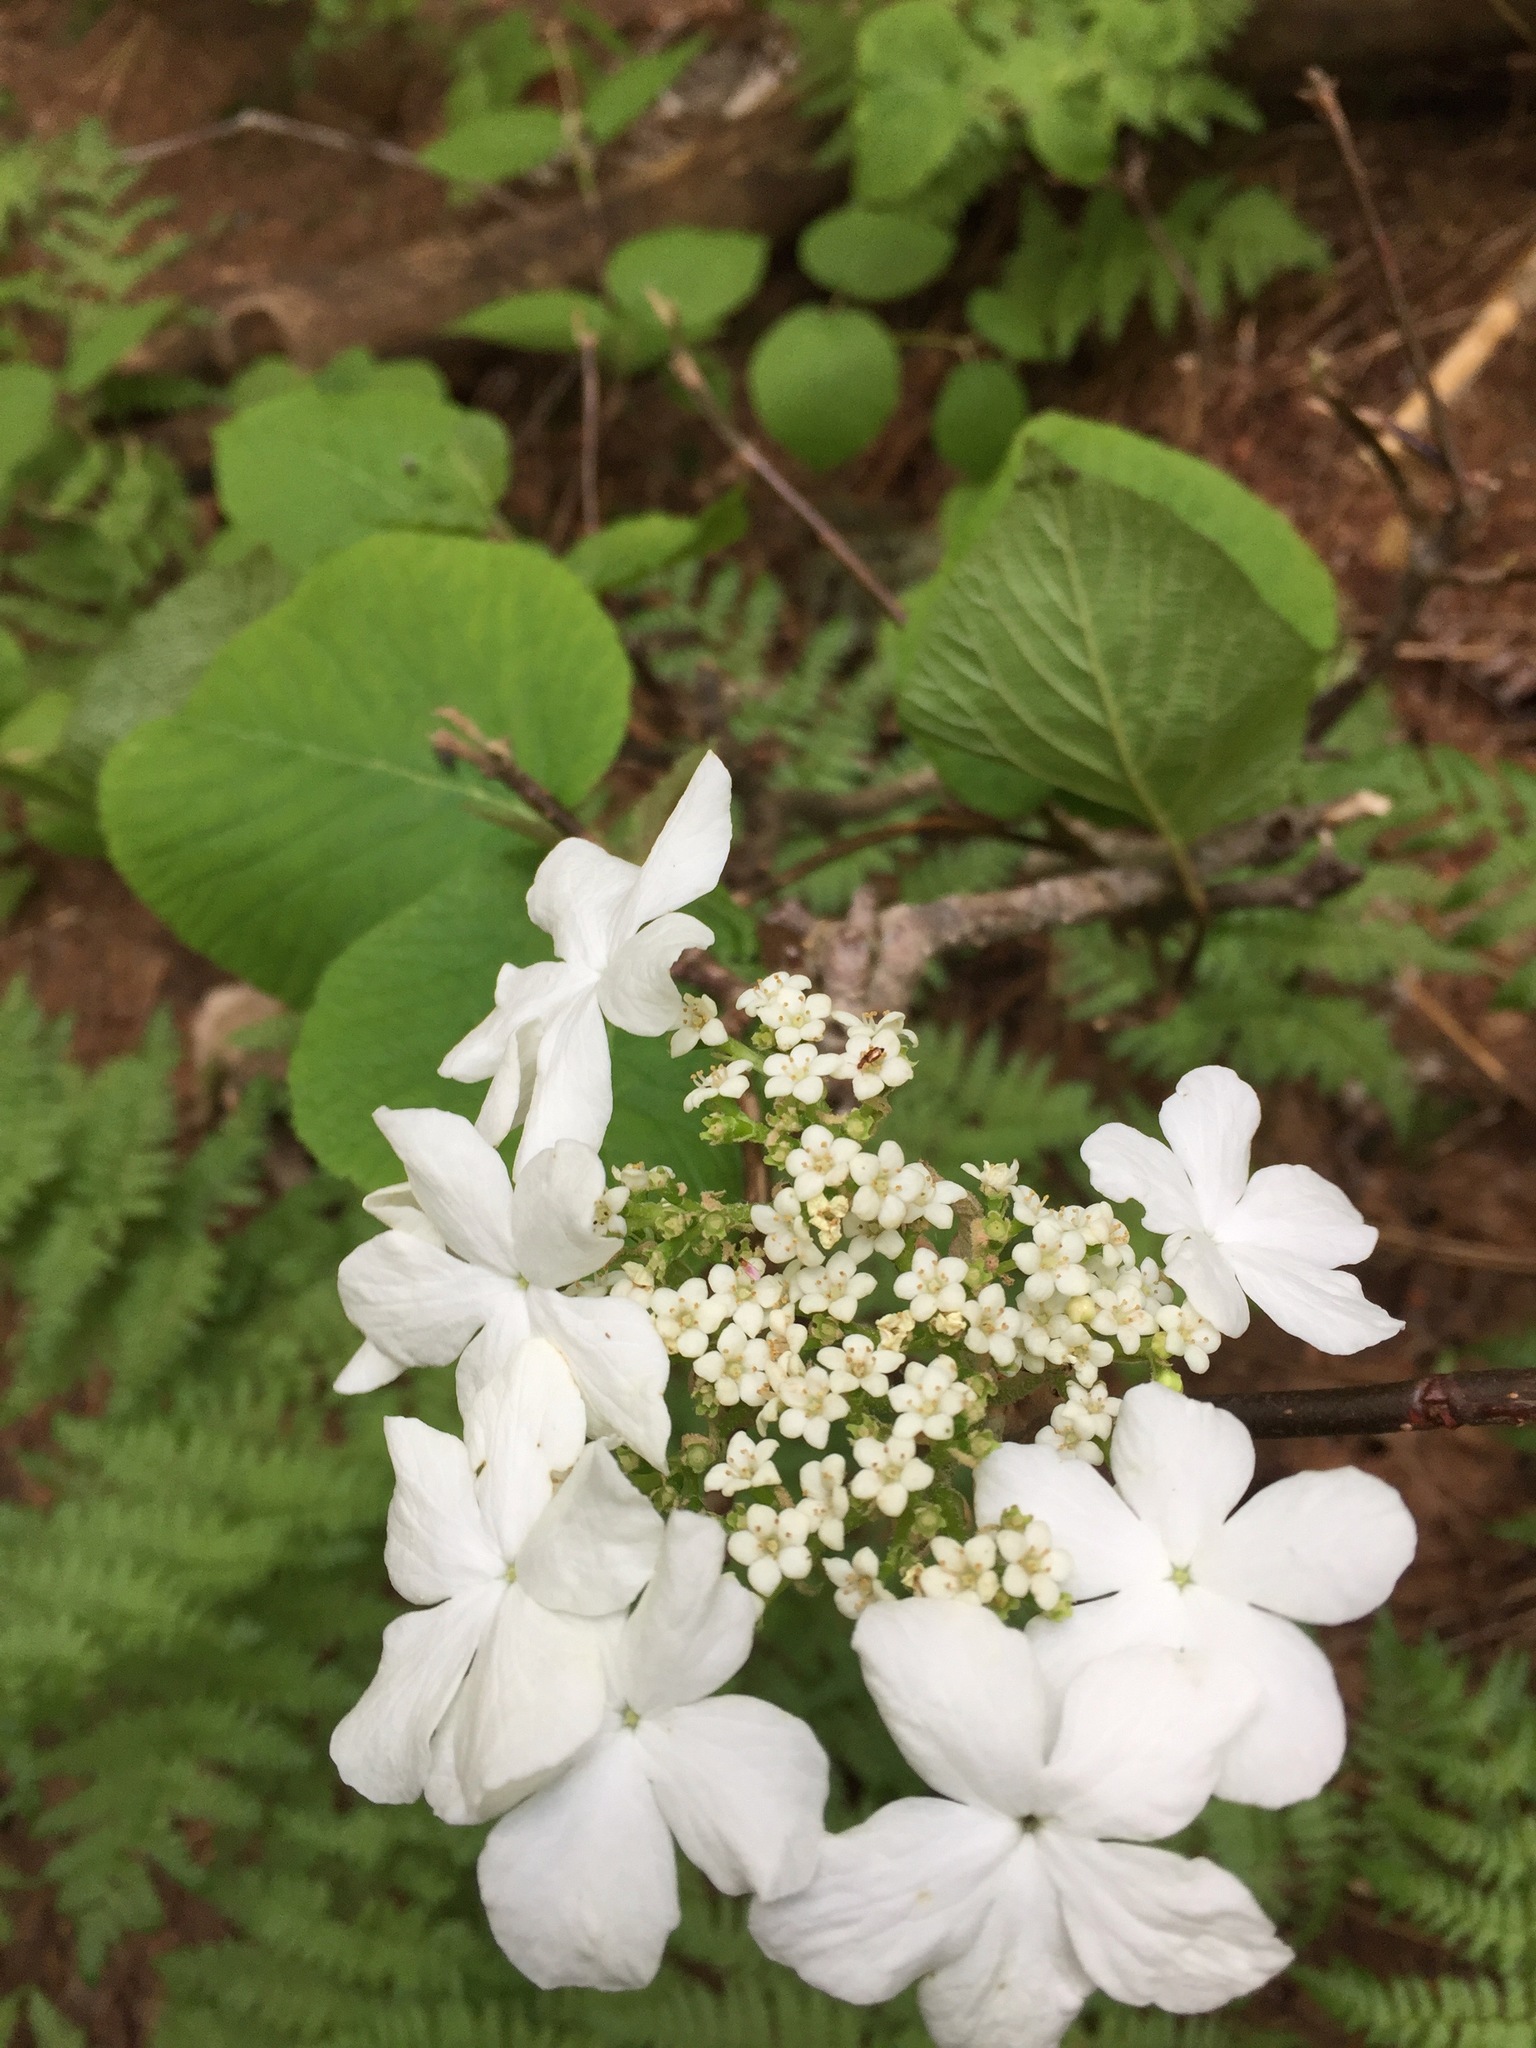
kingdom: Plantae
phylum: Tracheophyta
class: Magnoliopsida
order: Dipsacales
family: Viburnaceae
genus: Viburnum
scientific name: Viburnum lantanoides
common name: Hobblebush
